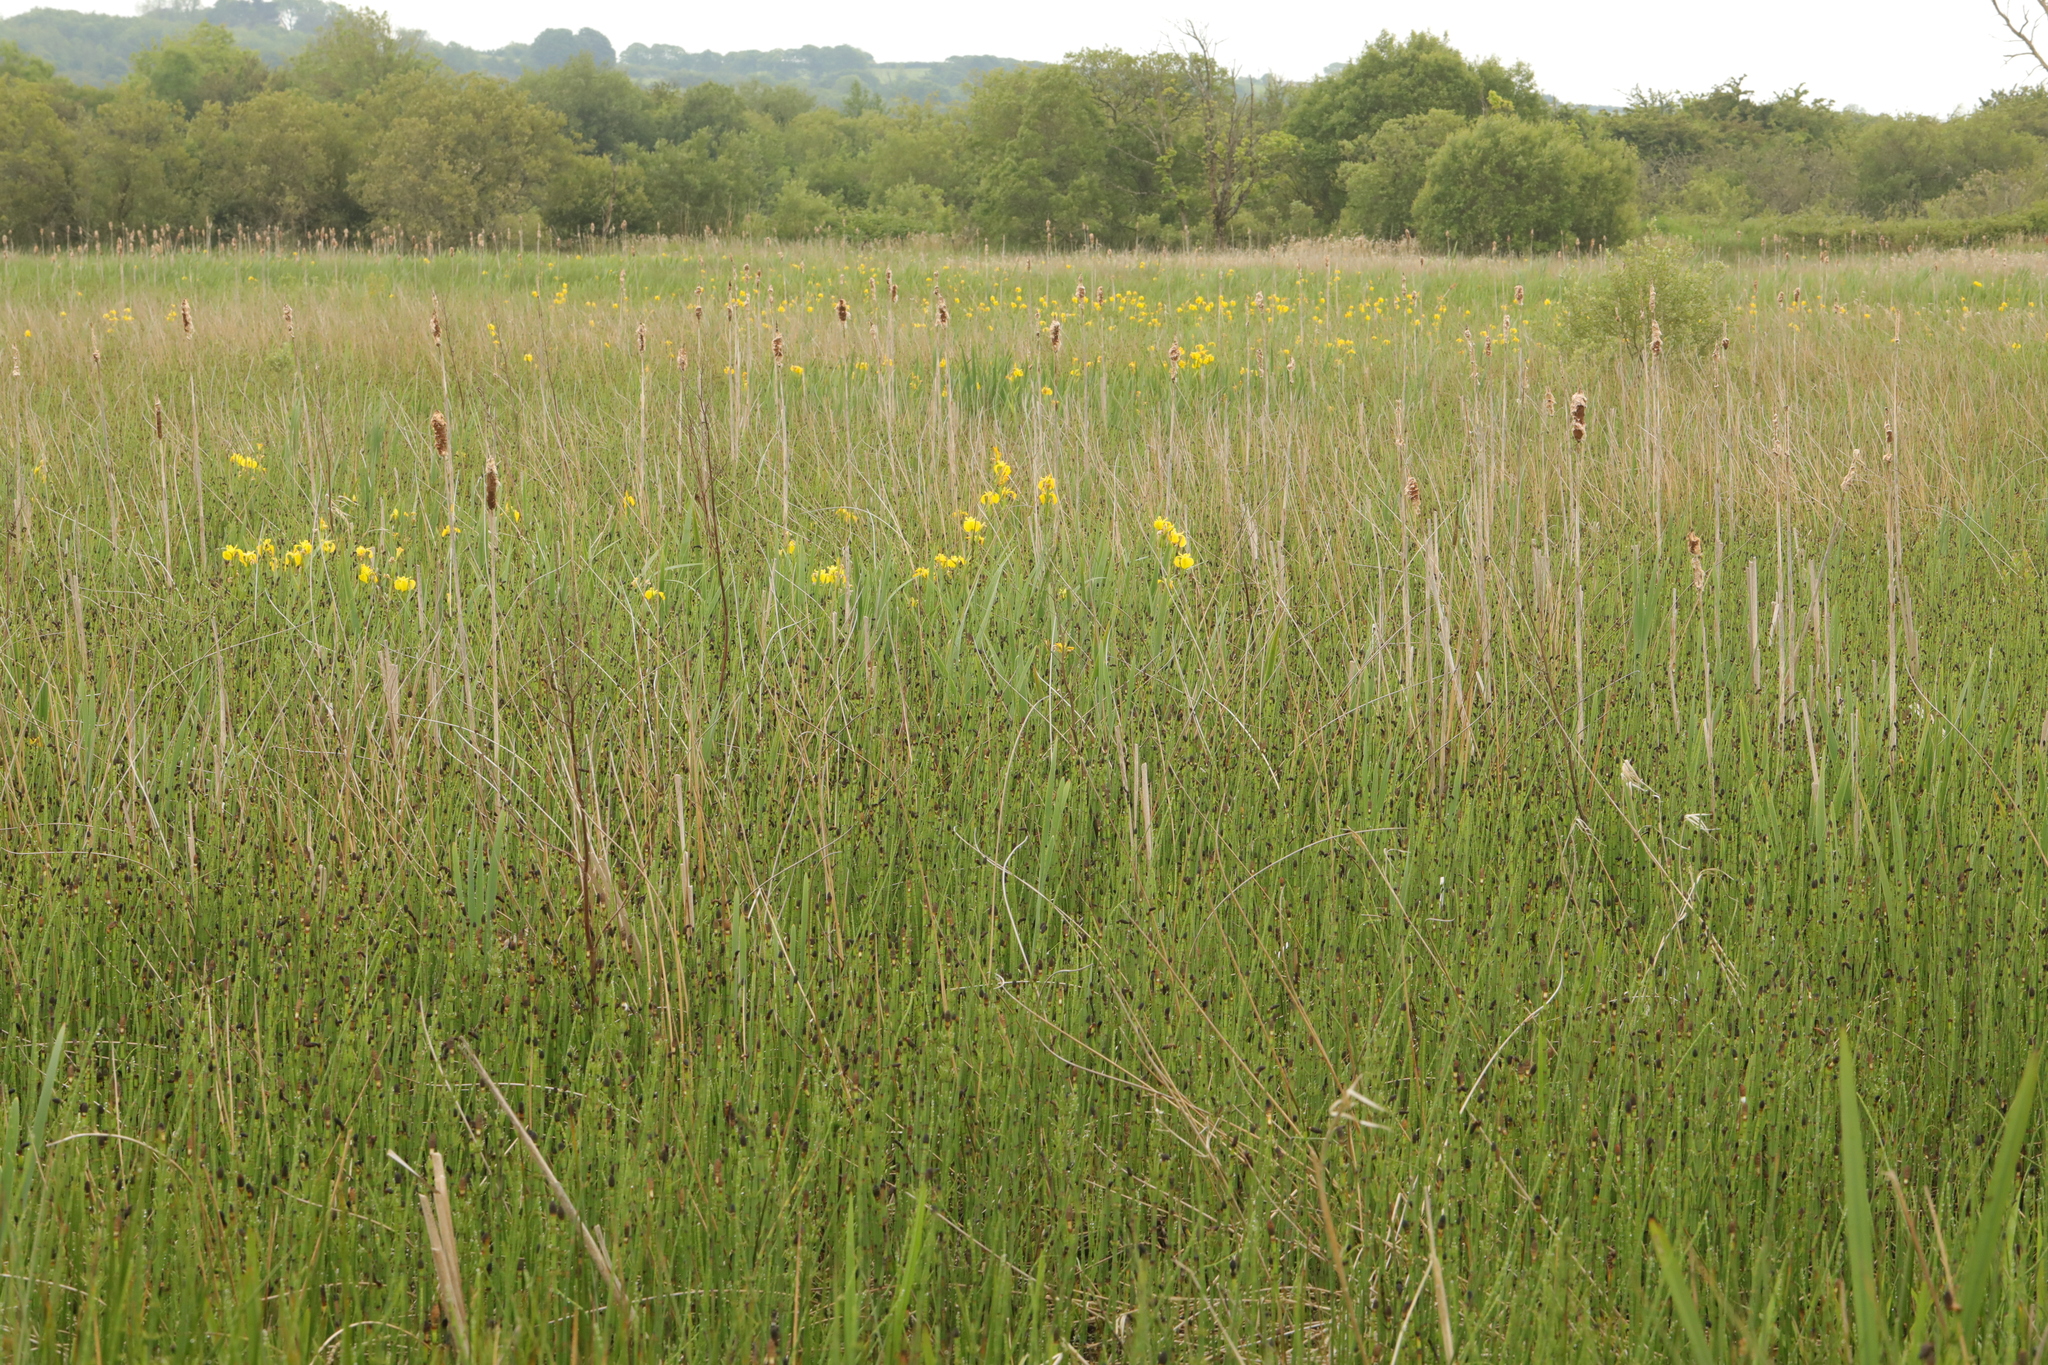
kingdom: Plantae
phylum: Tracheophyta
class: Liliopsida
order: Poales
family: Typhaceae
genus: Typha
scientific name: Typha latifolia
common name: Broadleaf cattail
